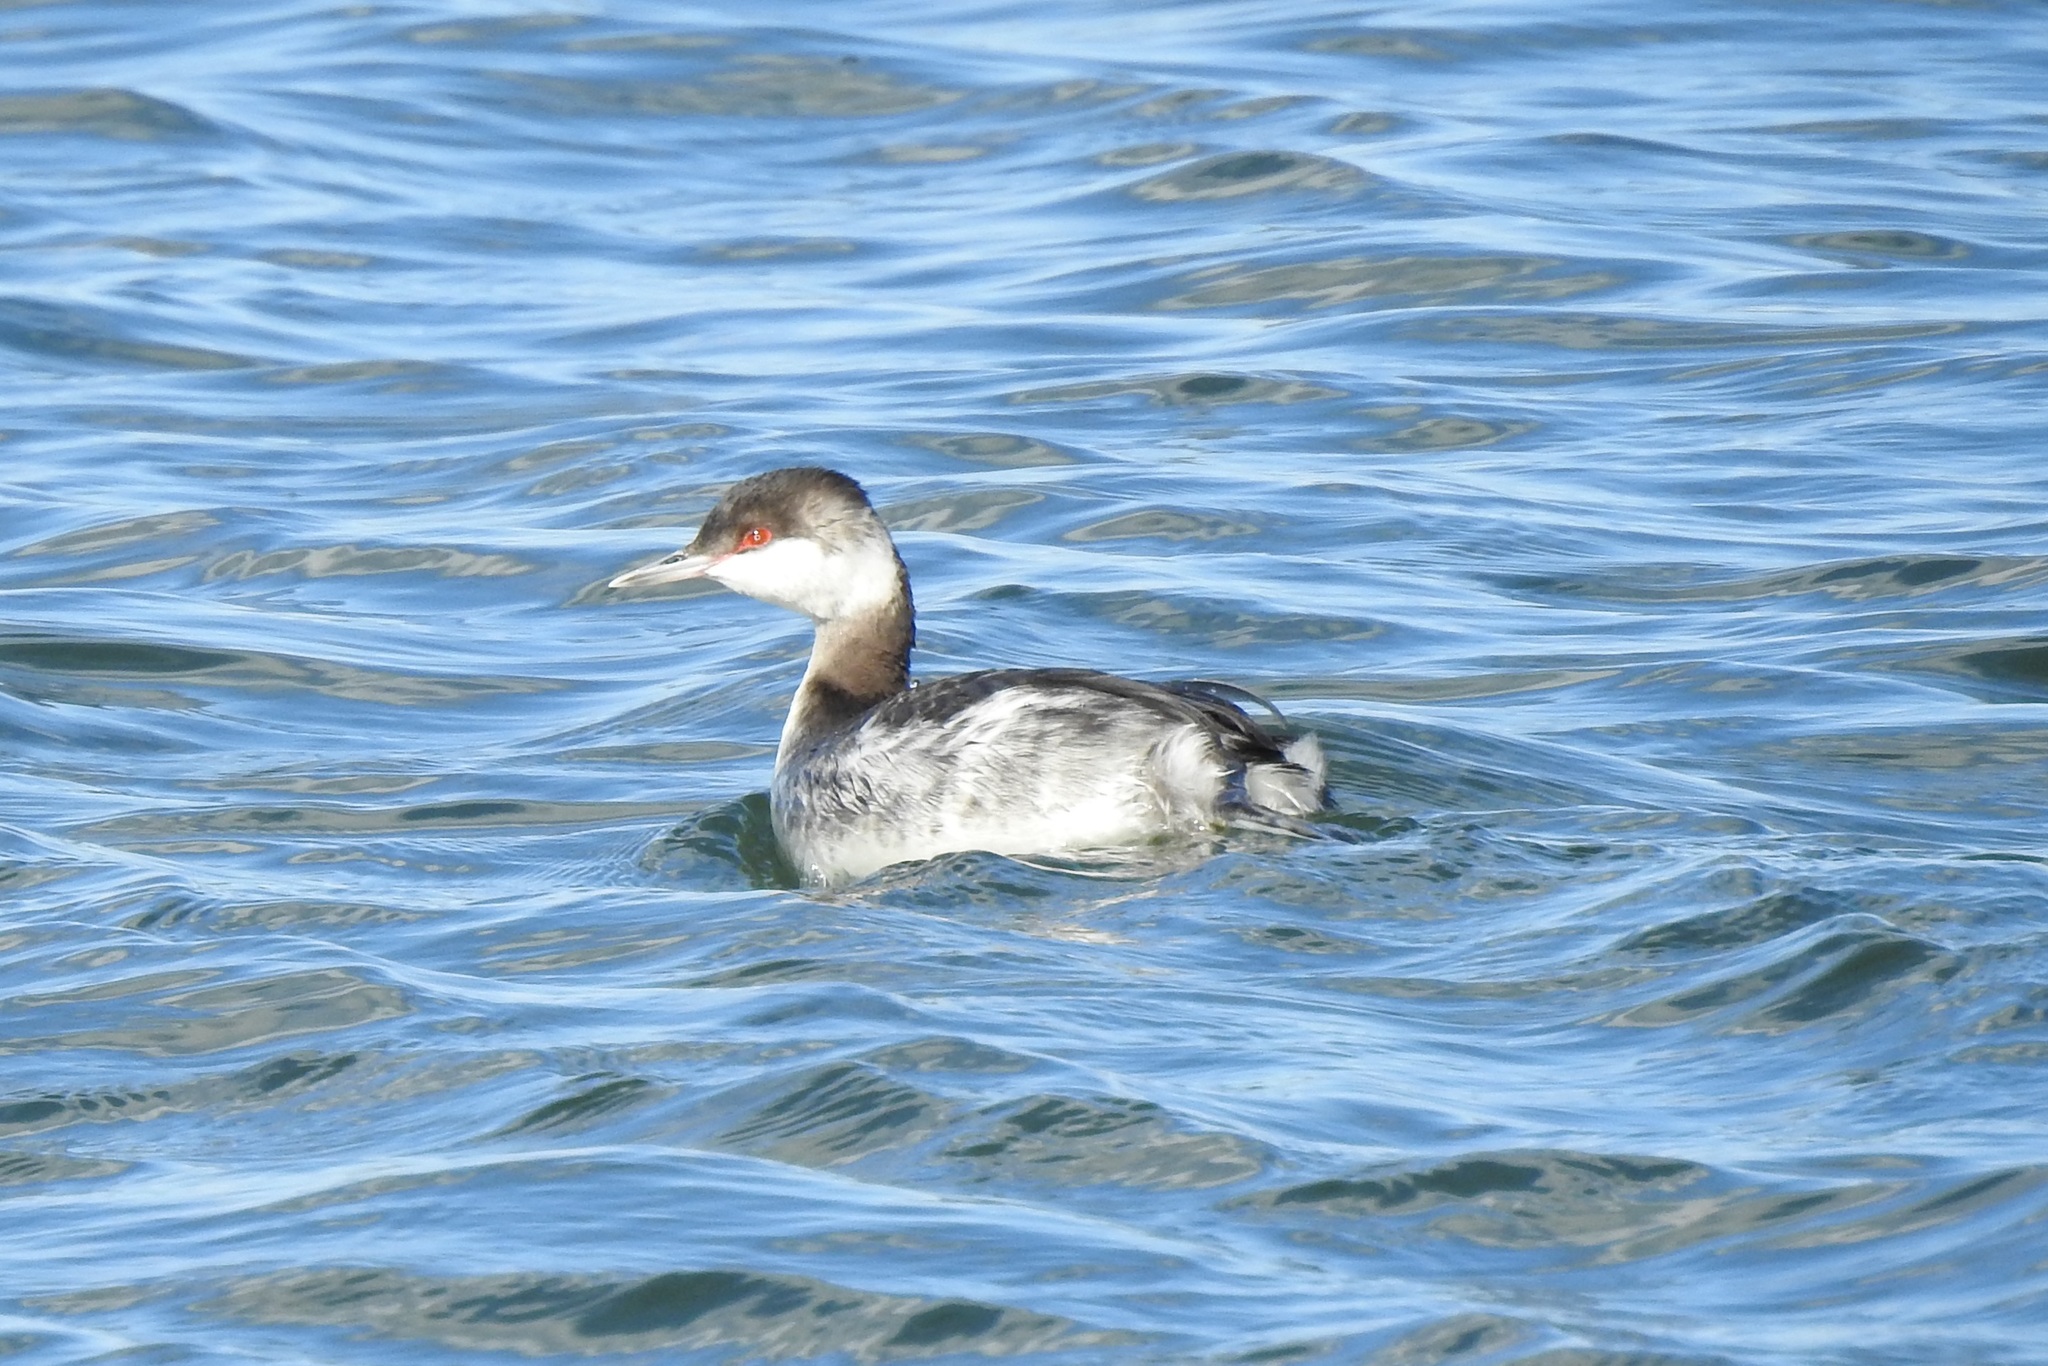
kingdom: Animalia
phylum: Chordata
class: Aves
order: Podicipediformes
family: Podicipedidae
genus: Podiceps
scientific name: Podiceps auritus
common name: Horned grebe
